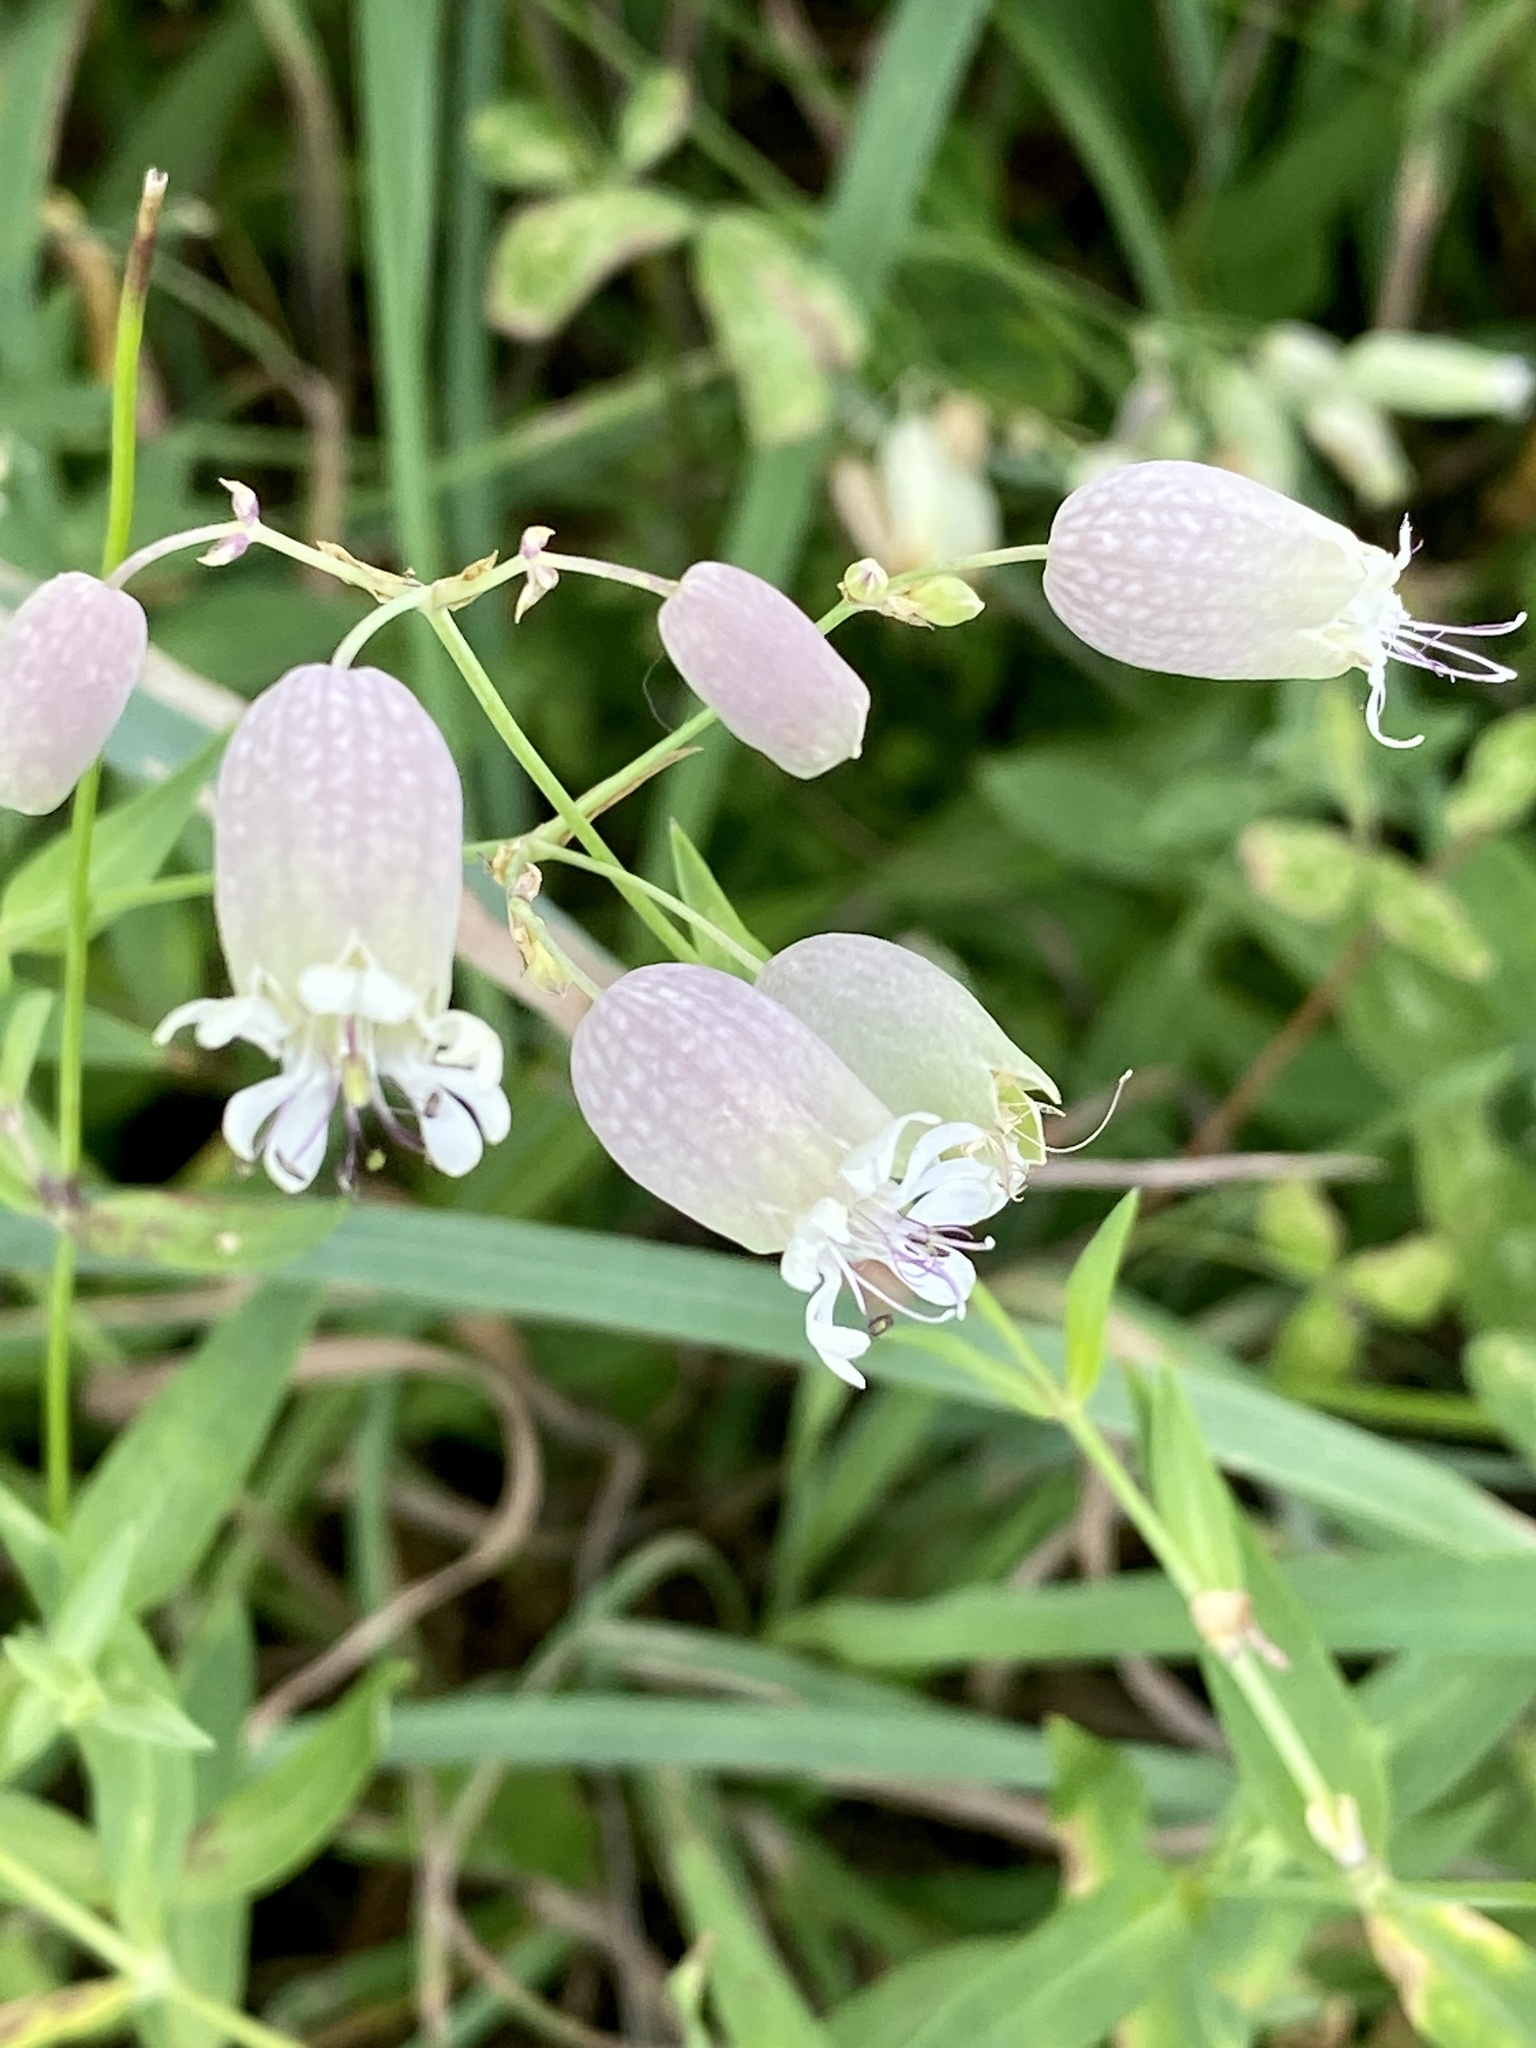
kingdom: Plantae
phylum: Tracheophyta
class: Magnoliopsida
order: Caryophyllales
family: Caryophyllaceae
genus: Silene
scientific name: Silene vulgaris
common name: Bladder campion
